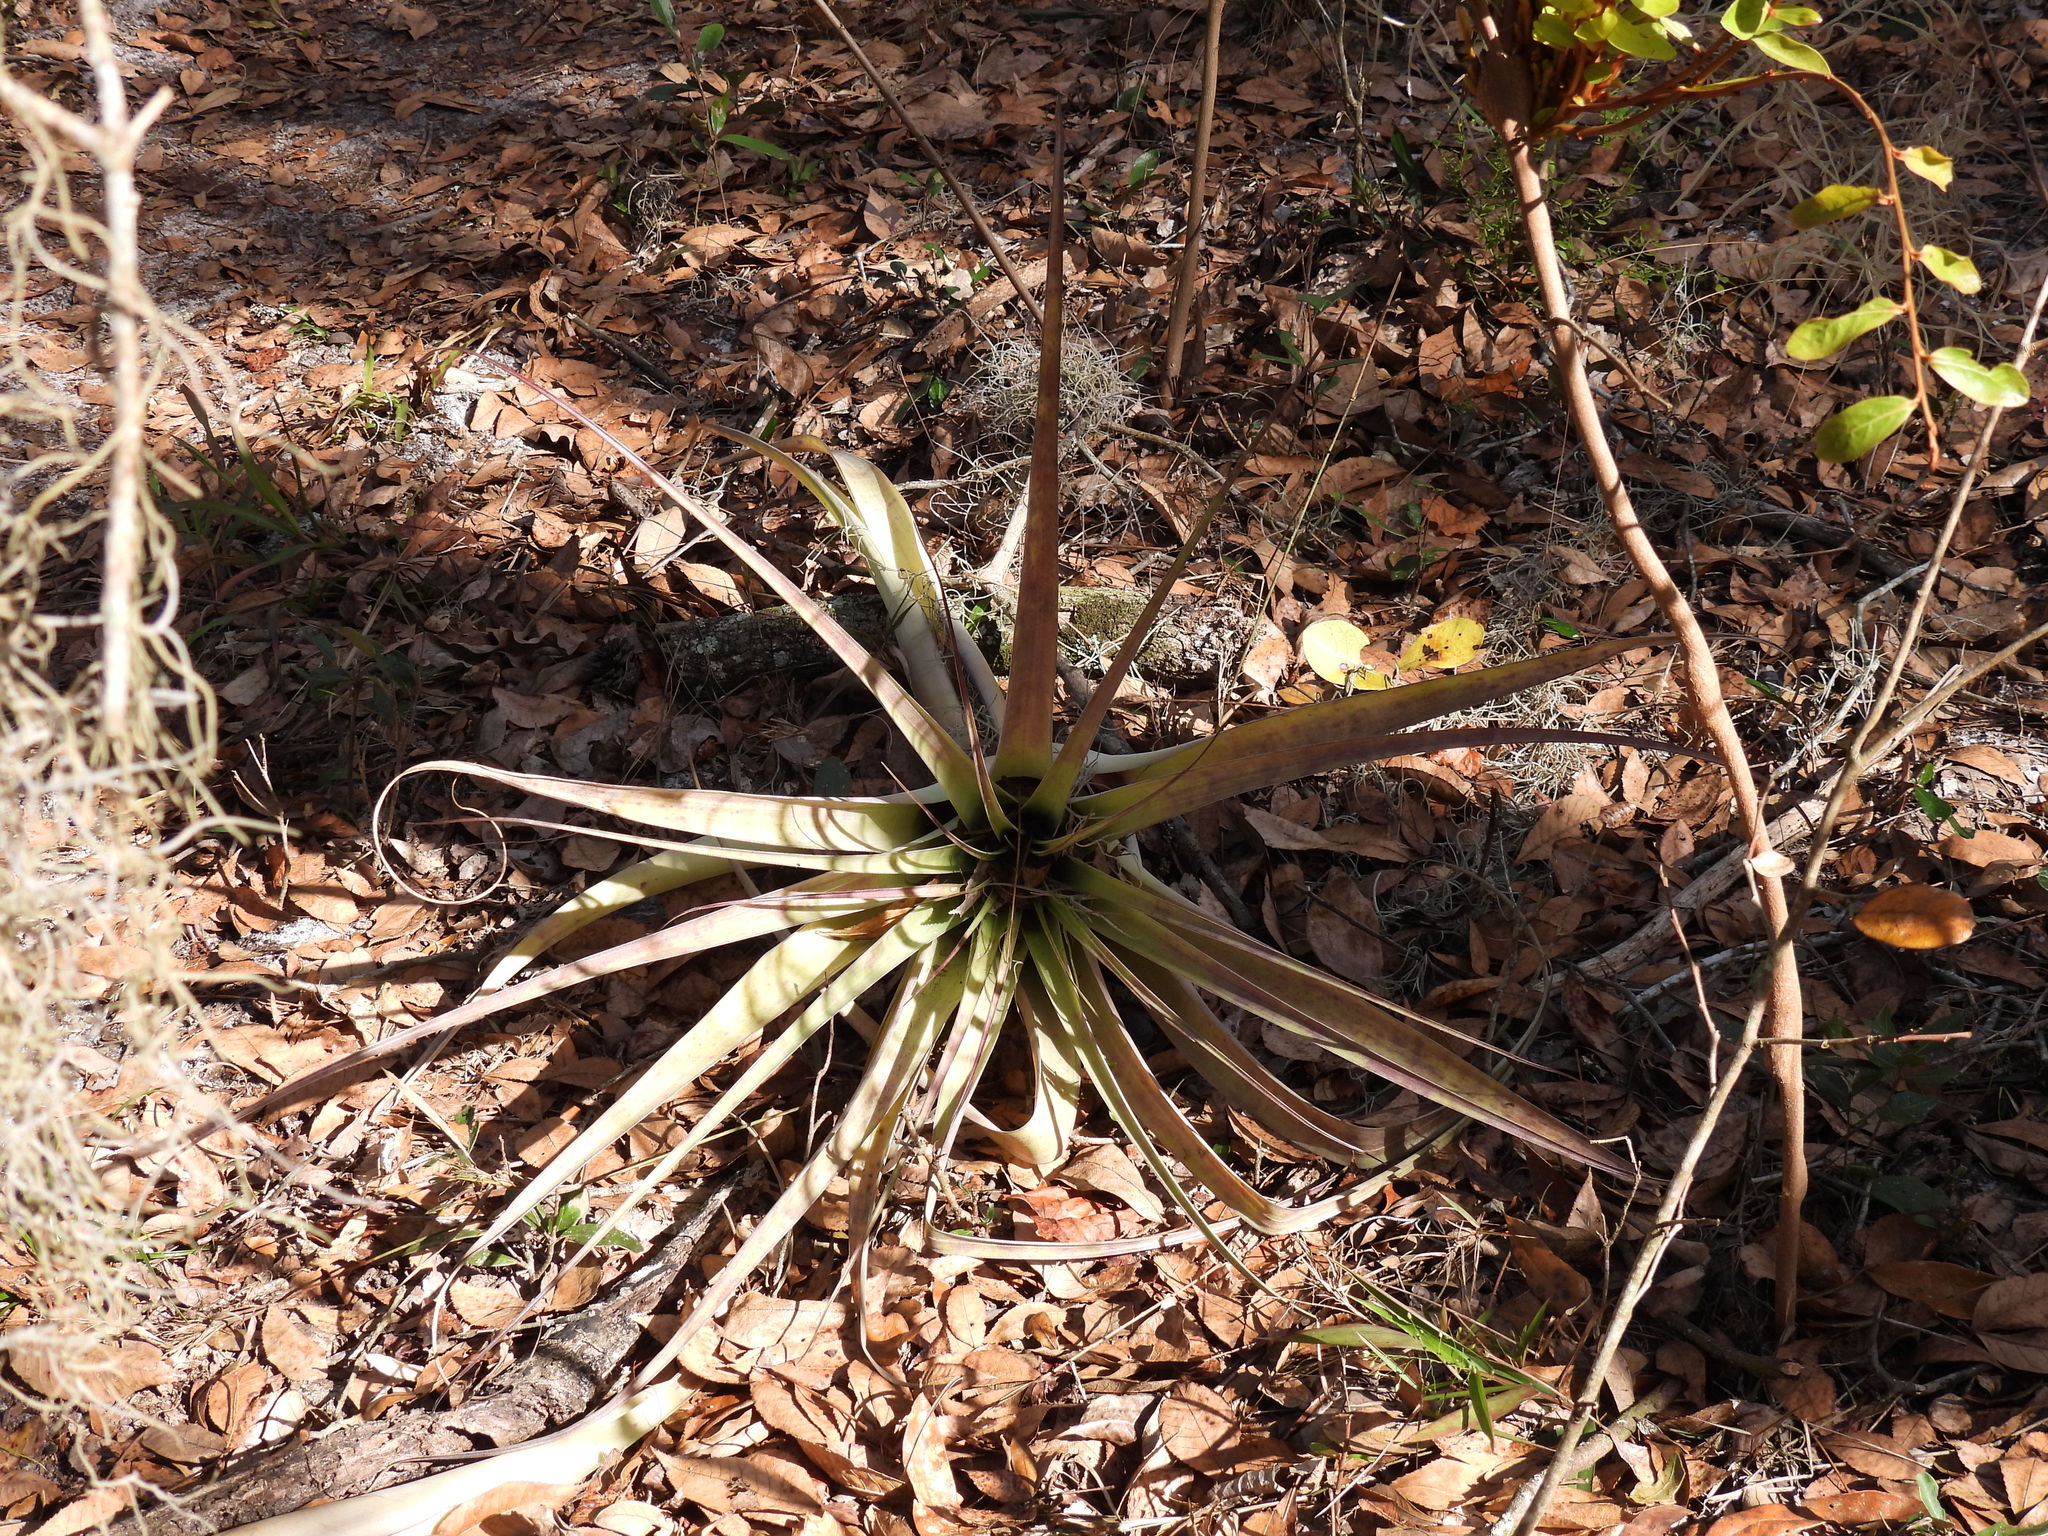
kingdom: Plantae
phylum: Tracheophyta
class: Liliopsida
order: Poales
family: Bromeliaceae
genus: Tillandsia
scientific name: Tillandsia utriculata
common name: Wild pine
